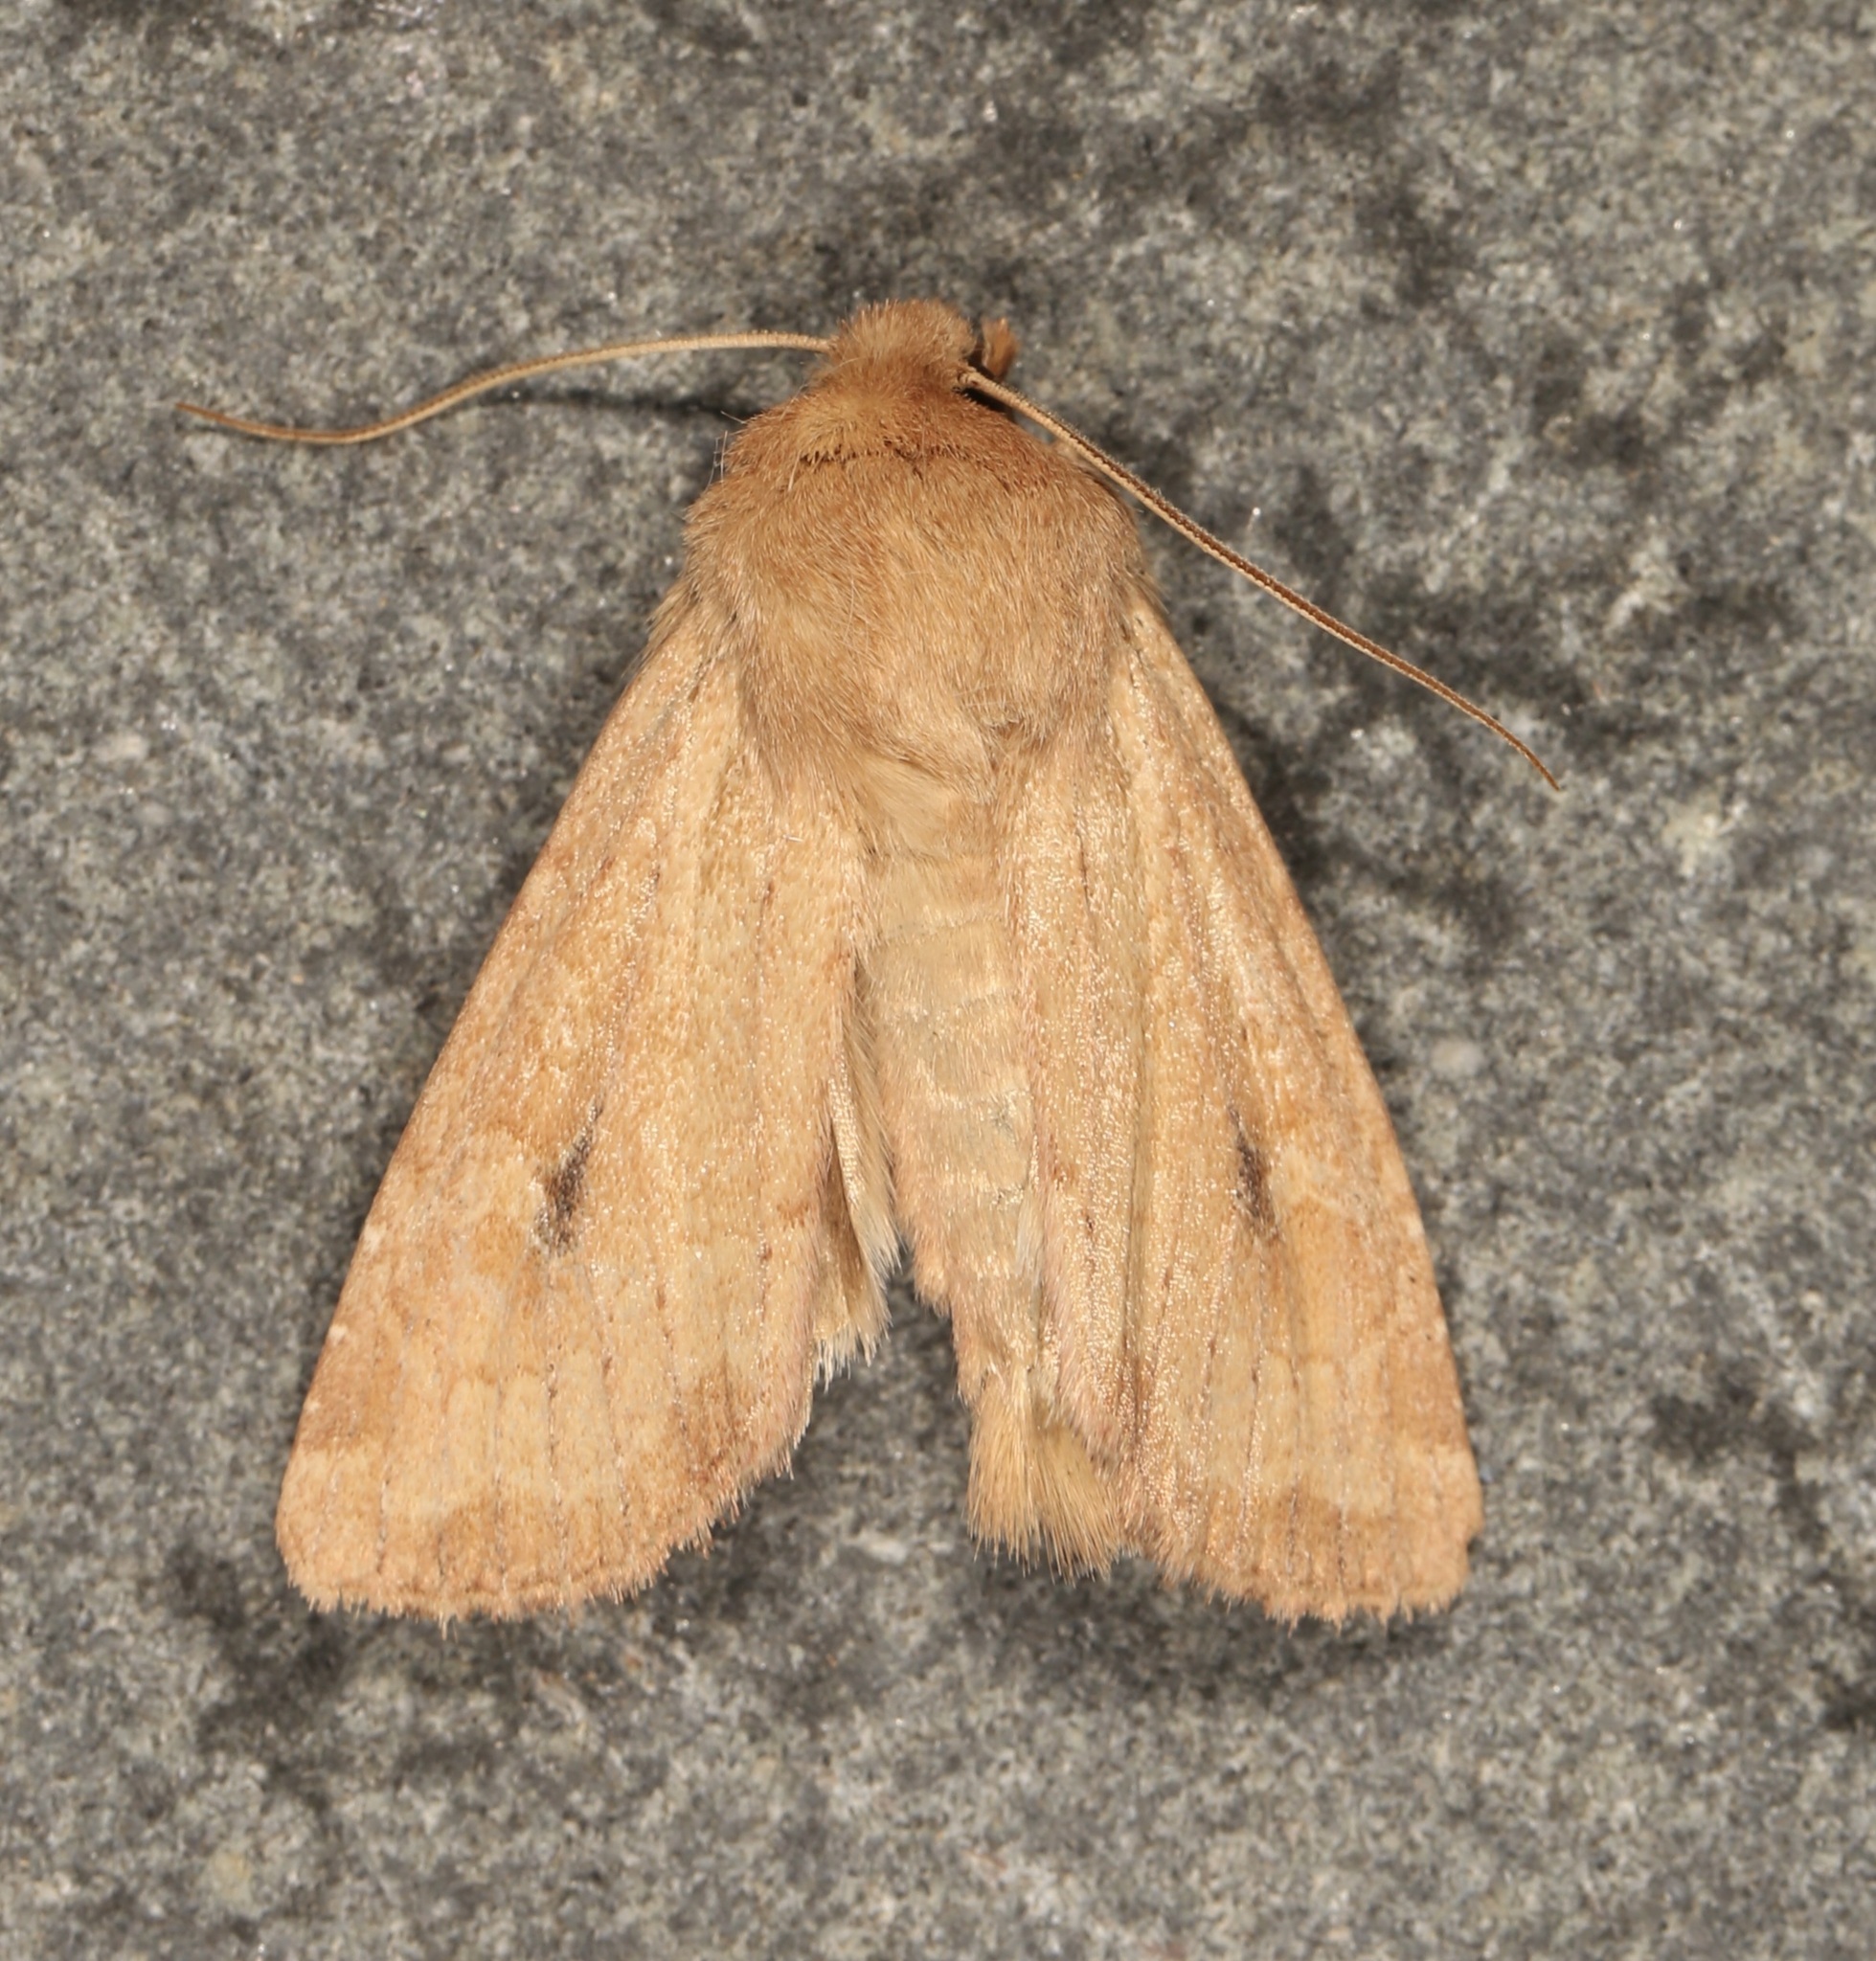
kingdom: Animalia
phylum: Arthropoda
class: Insecta
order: Lepidoptera
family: Noctuidae
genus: Apamea
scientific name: Apamea inficita
